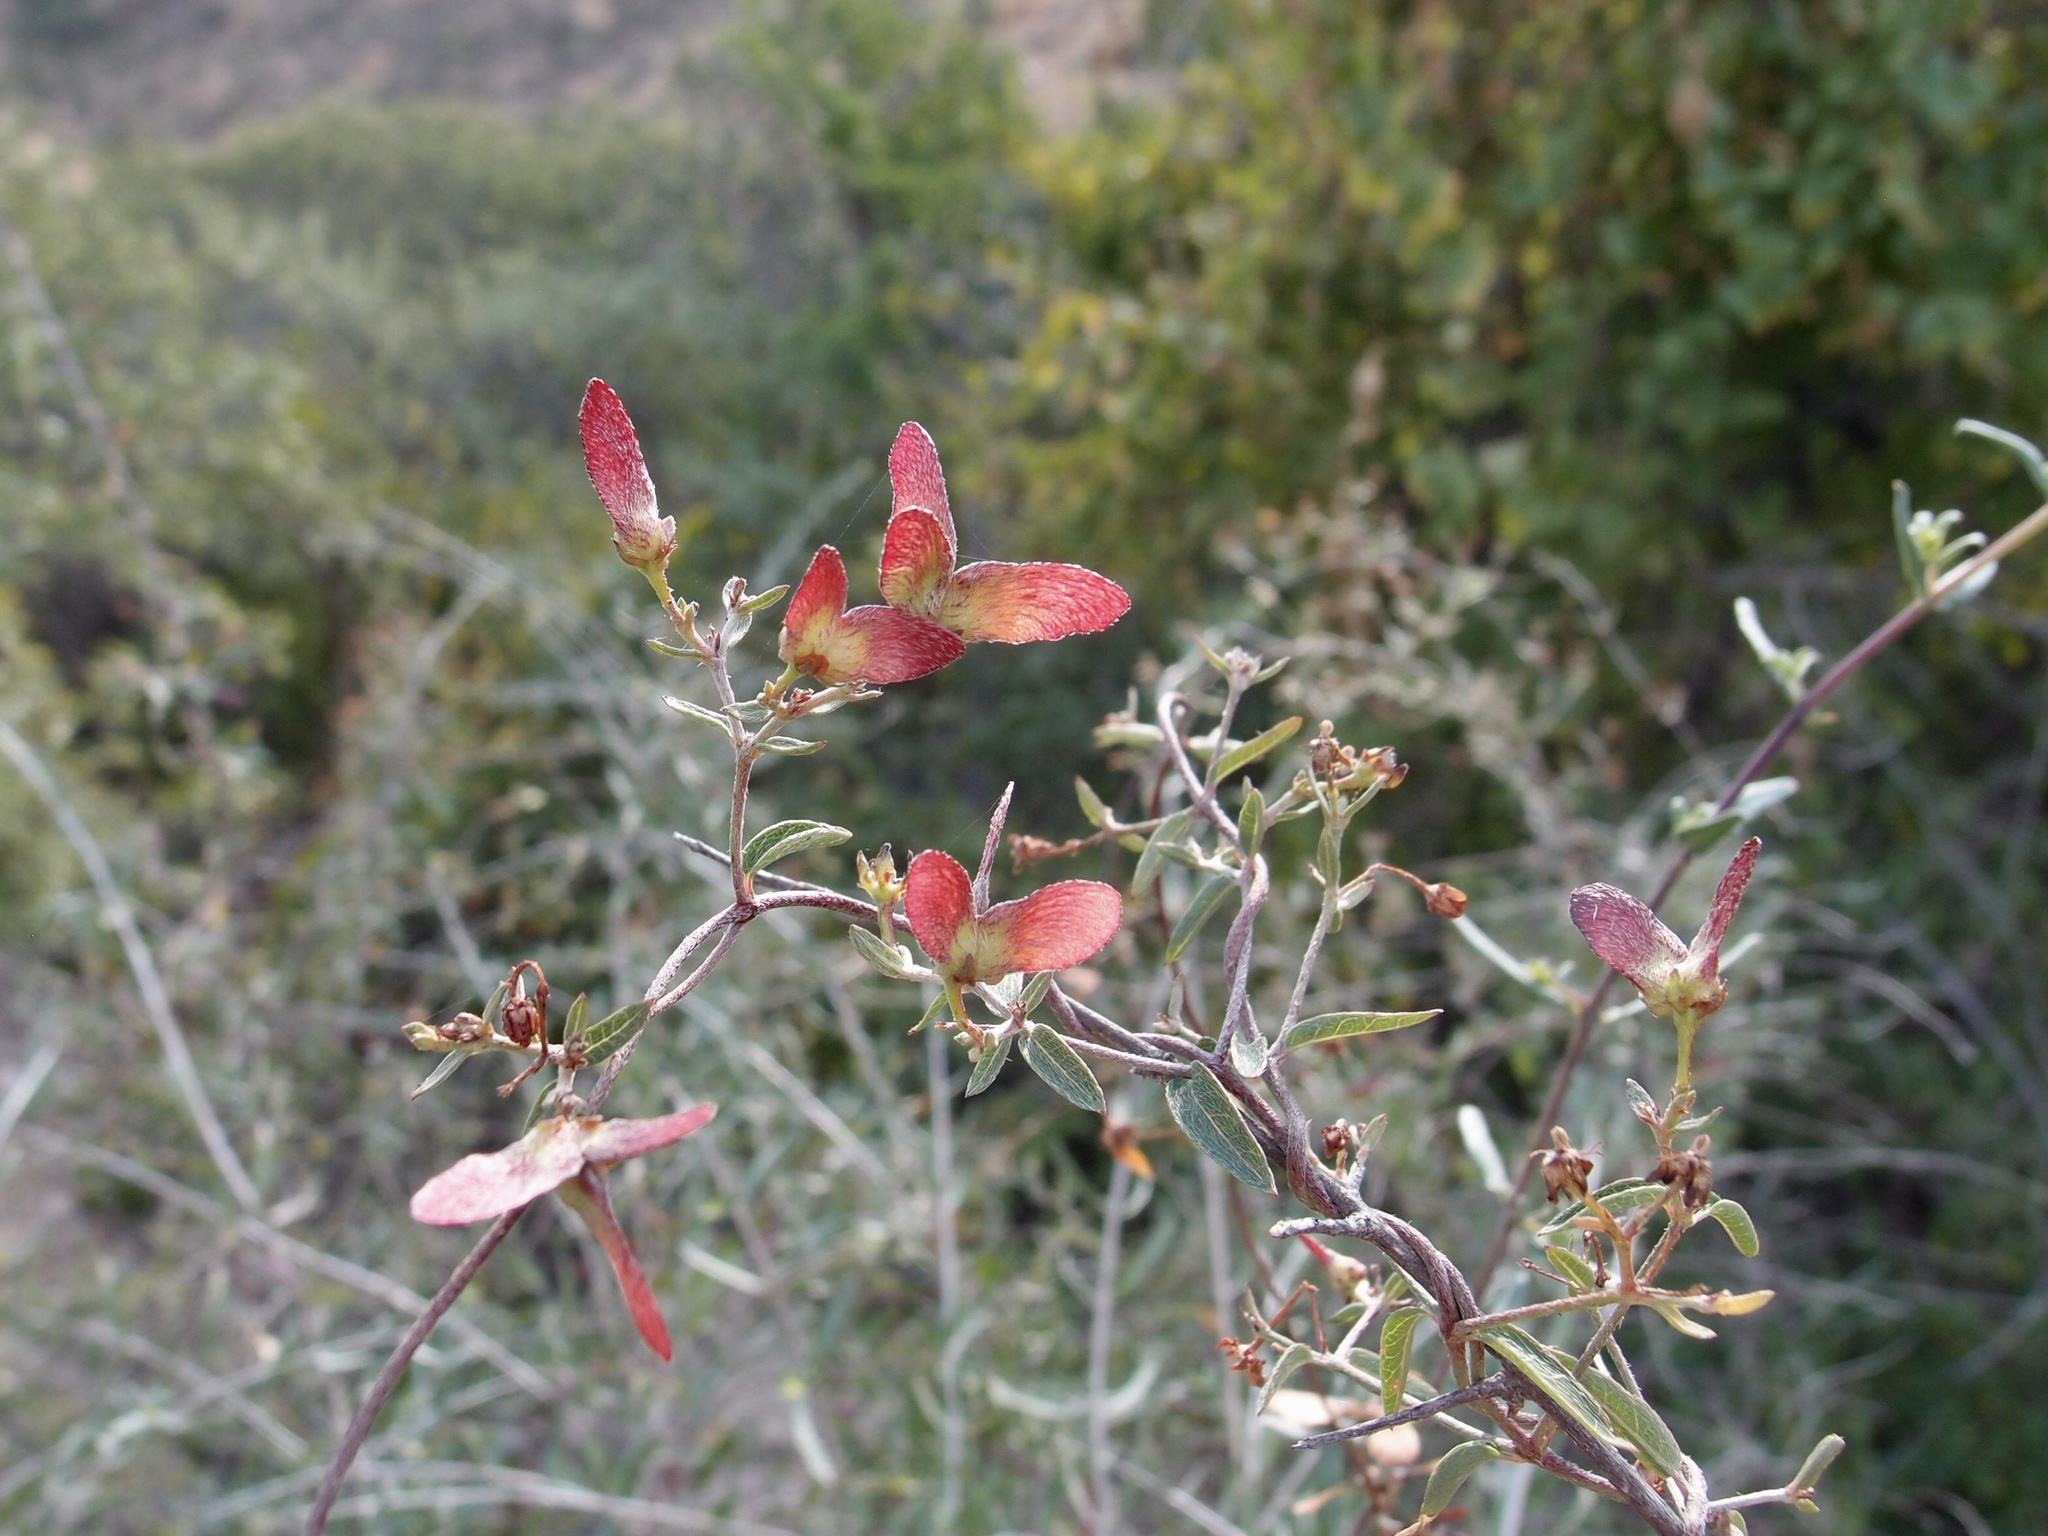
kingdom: Plantae
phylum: Tracheophyta
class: Magnoliopsida
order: Malpighiales
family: Malpighiaceae
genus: Cottsia
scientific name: Cottsia gracilis
